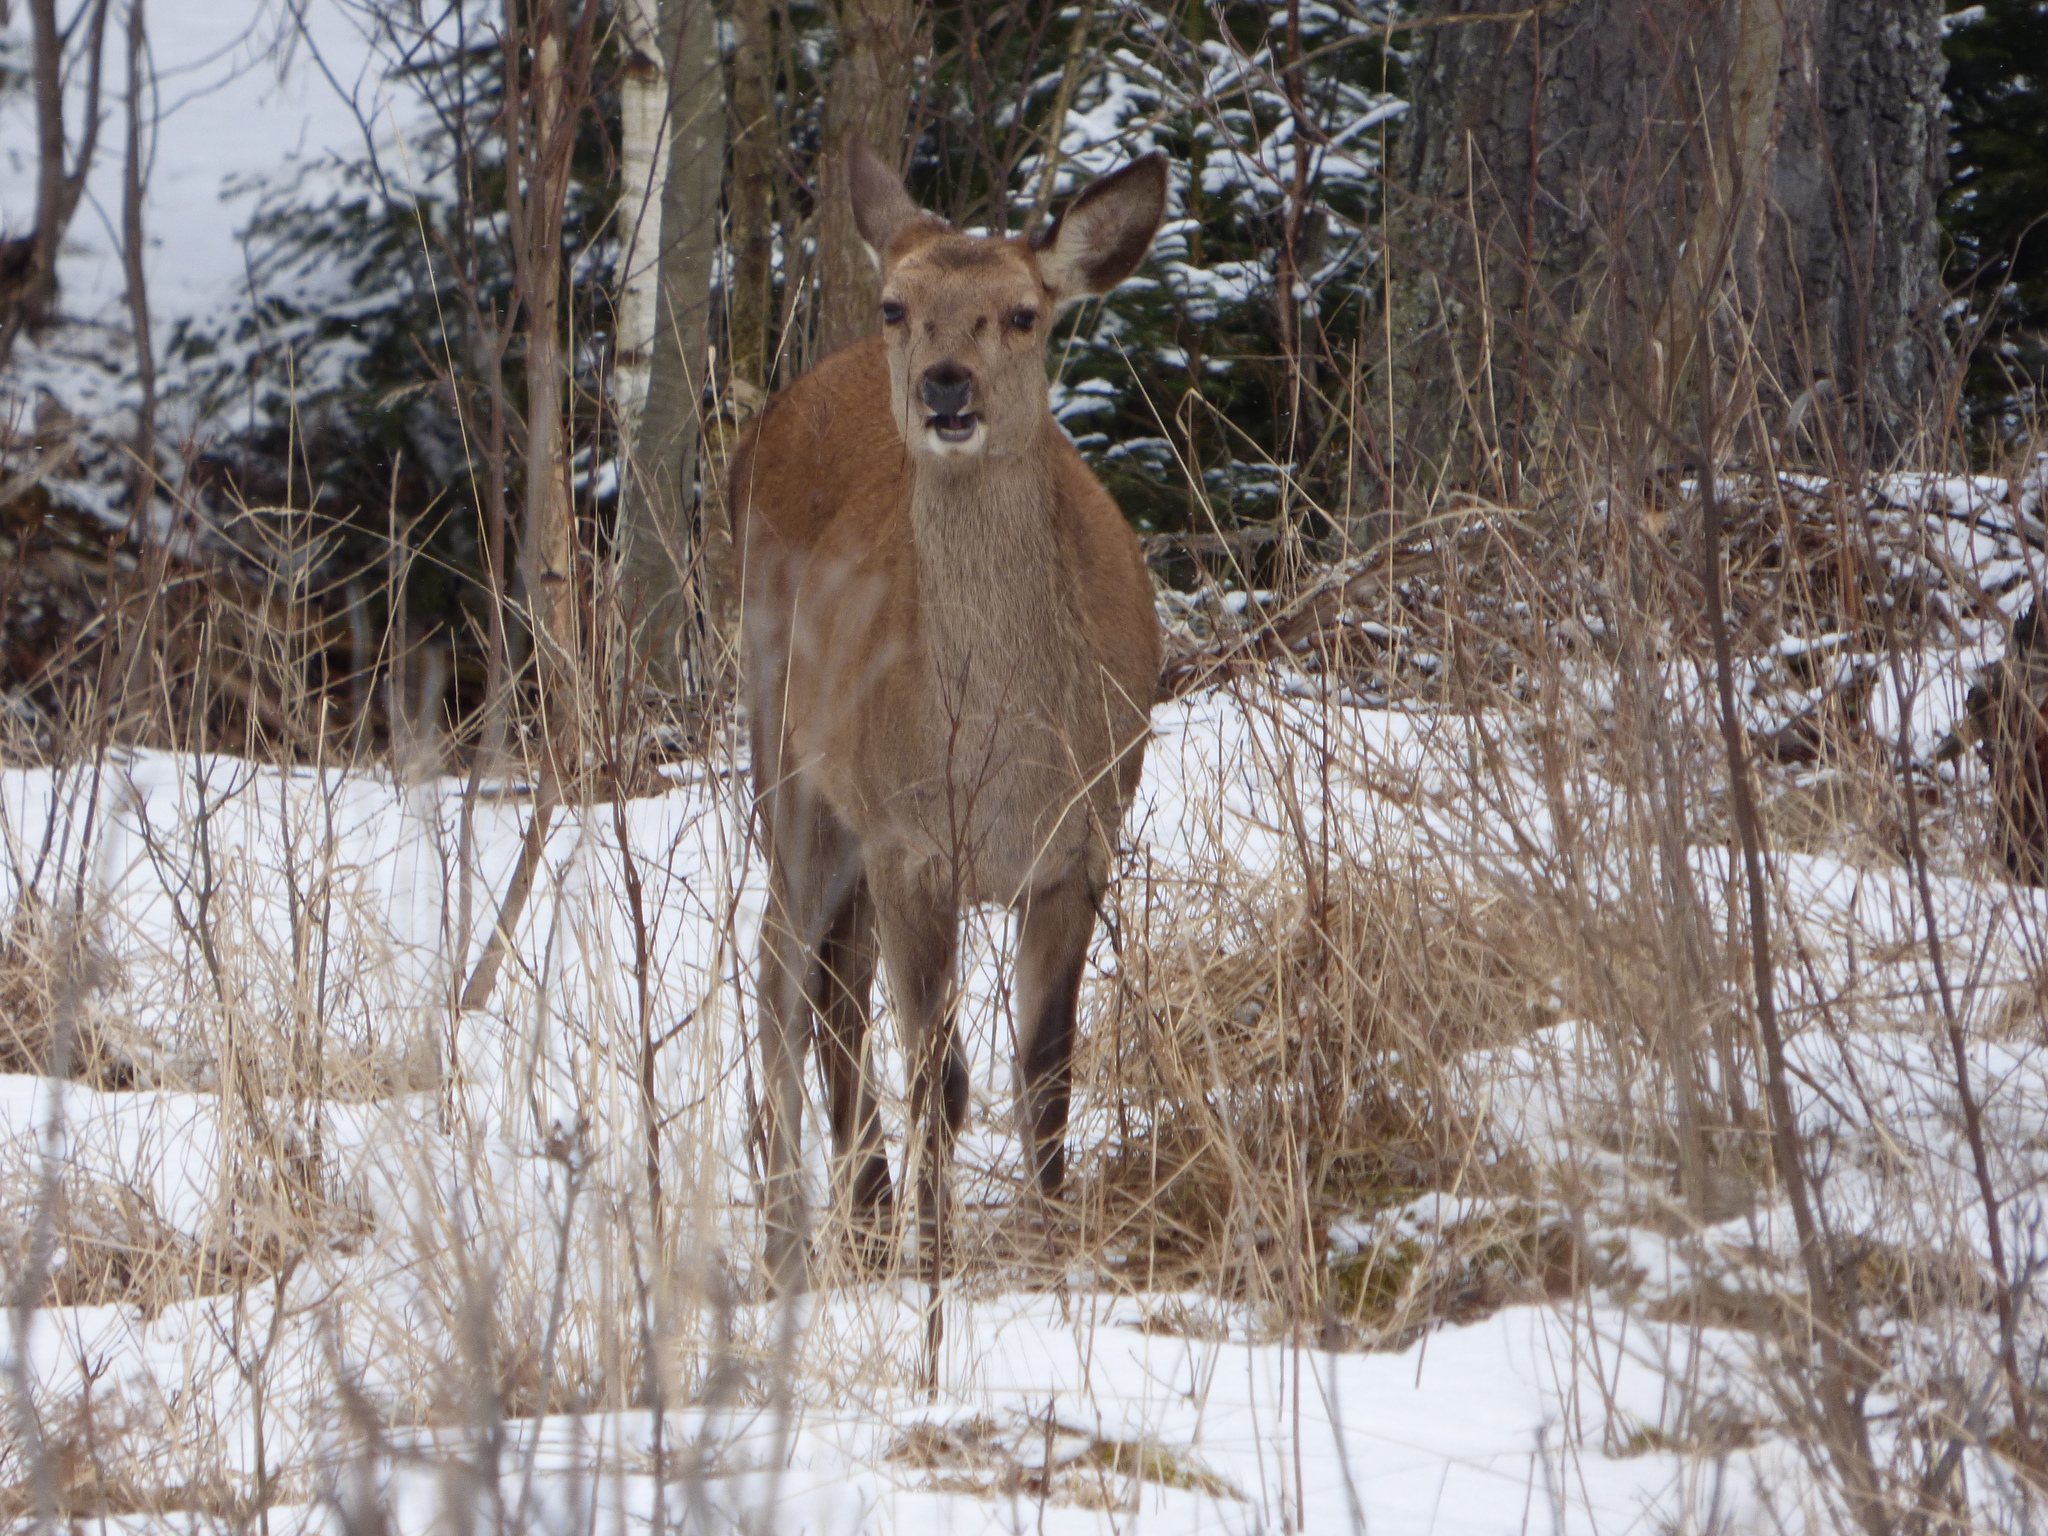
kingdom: Animalia
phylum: Chordata
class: Mammalia
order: Artiodactyla
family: Cervidae
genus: Cervus
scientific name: Cervus elaphus
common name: Red deer
